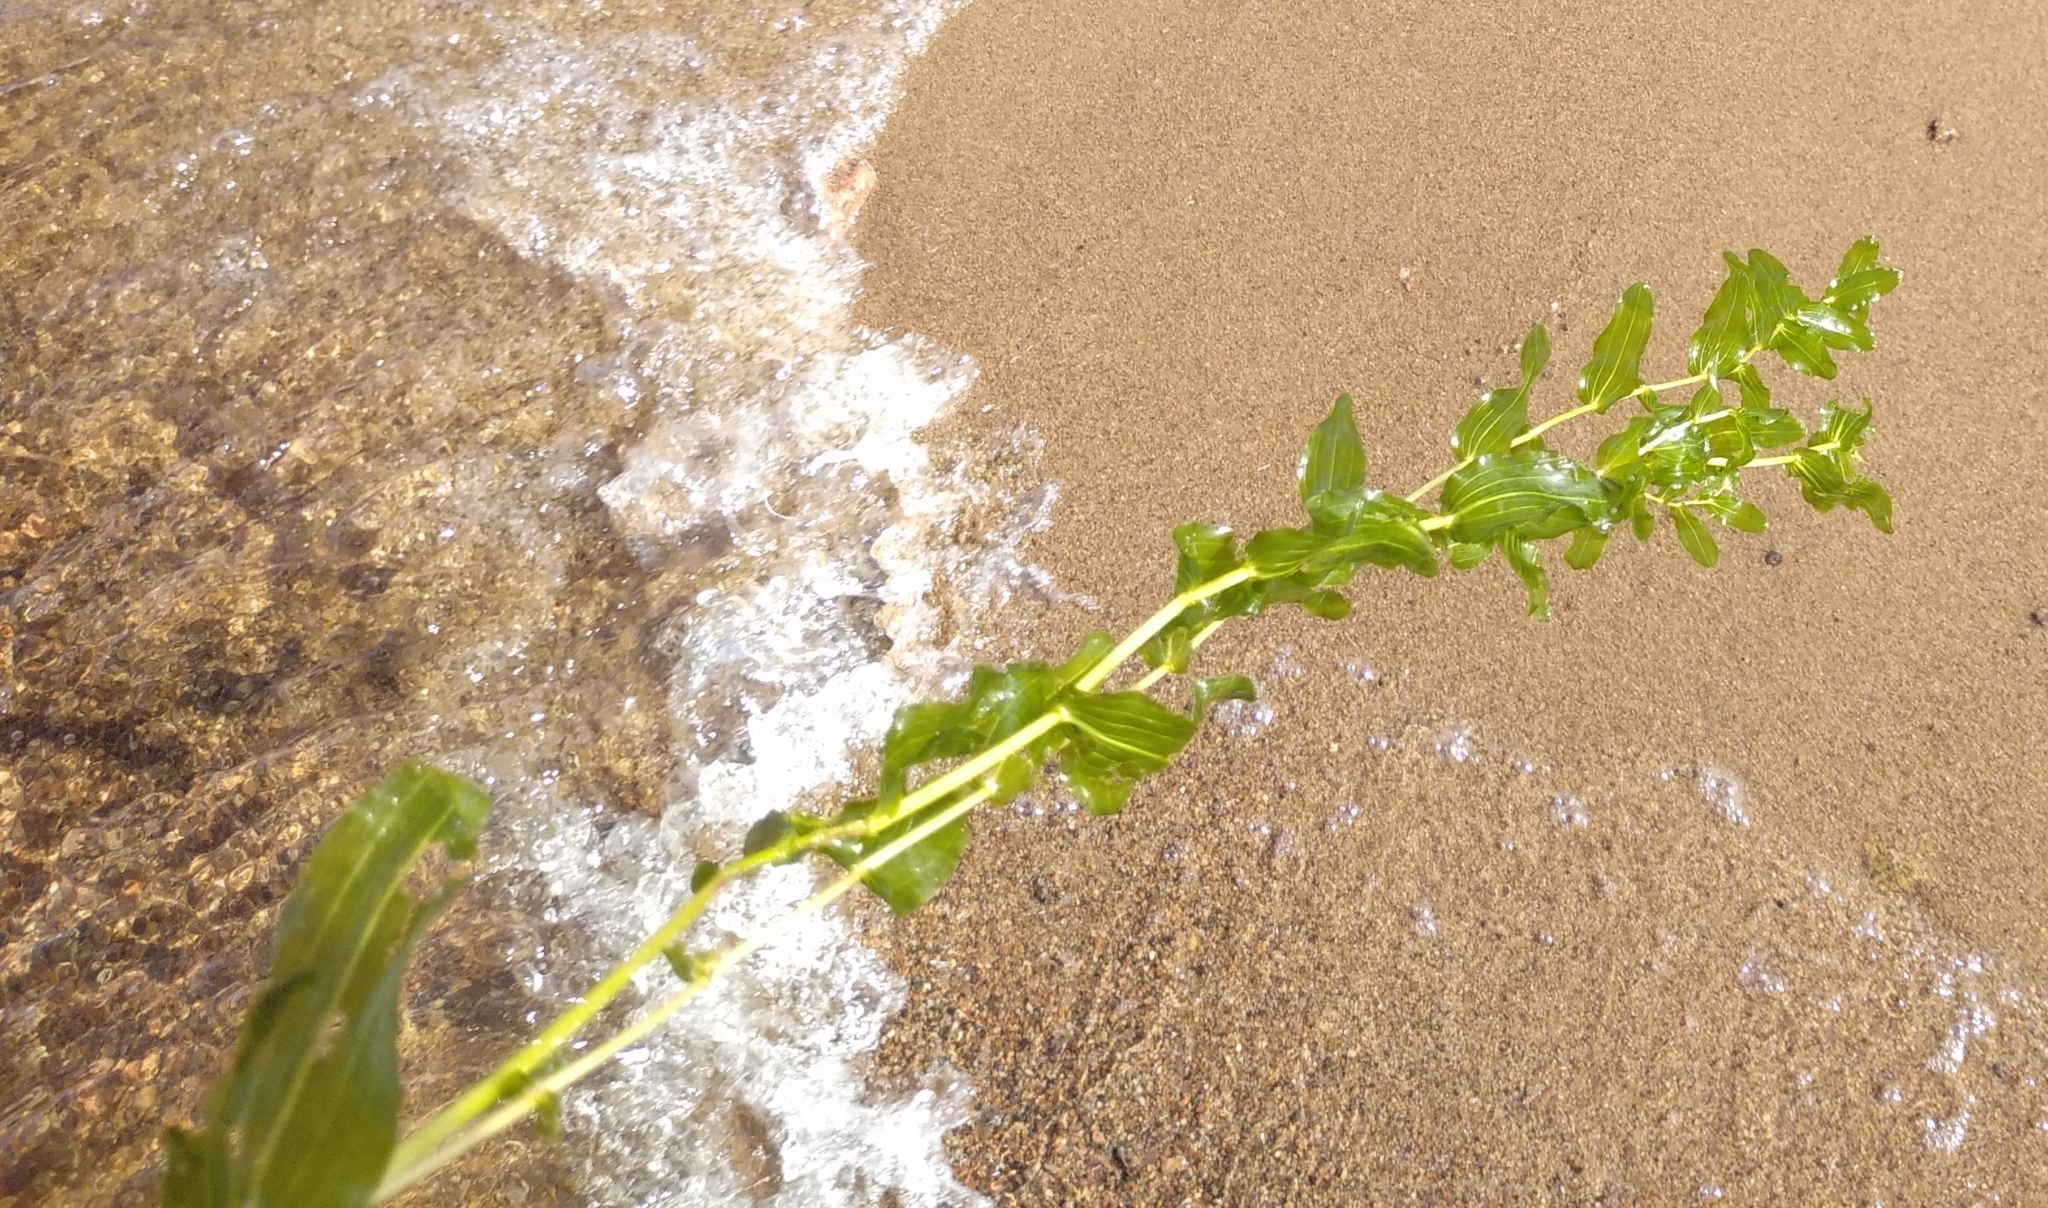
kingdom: Plantae
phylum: Tracheophyta
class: Liliopsida
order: Alismatales
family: Potamogetonaceae
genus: Potamogeton
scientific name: Potamogeton perfoliatus
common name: Perfoliate pondweed
